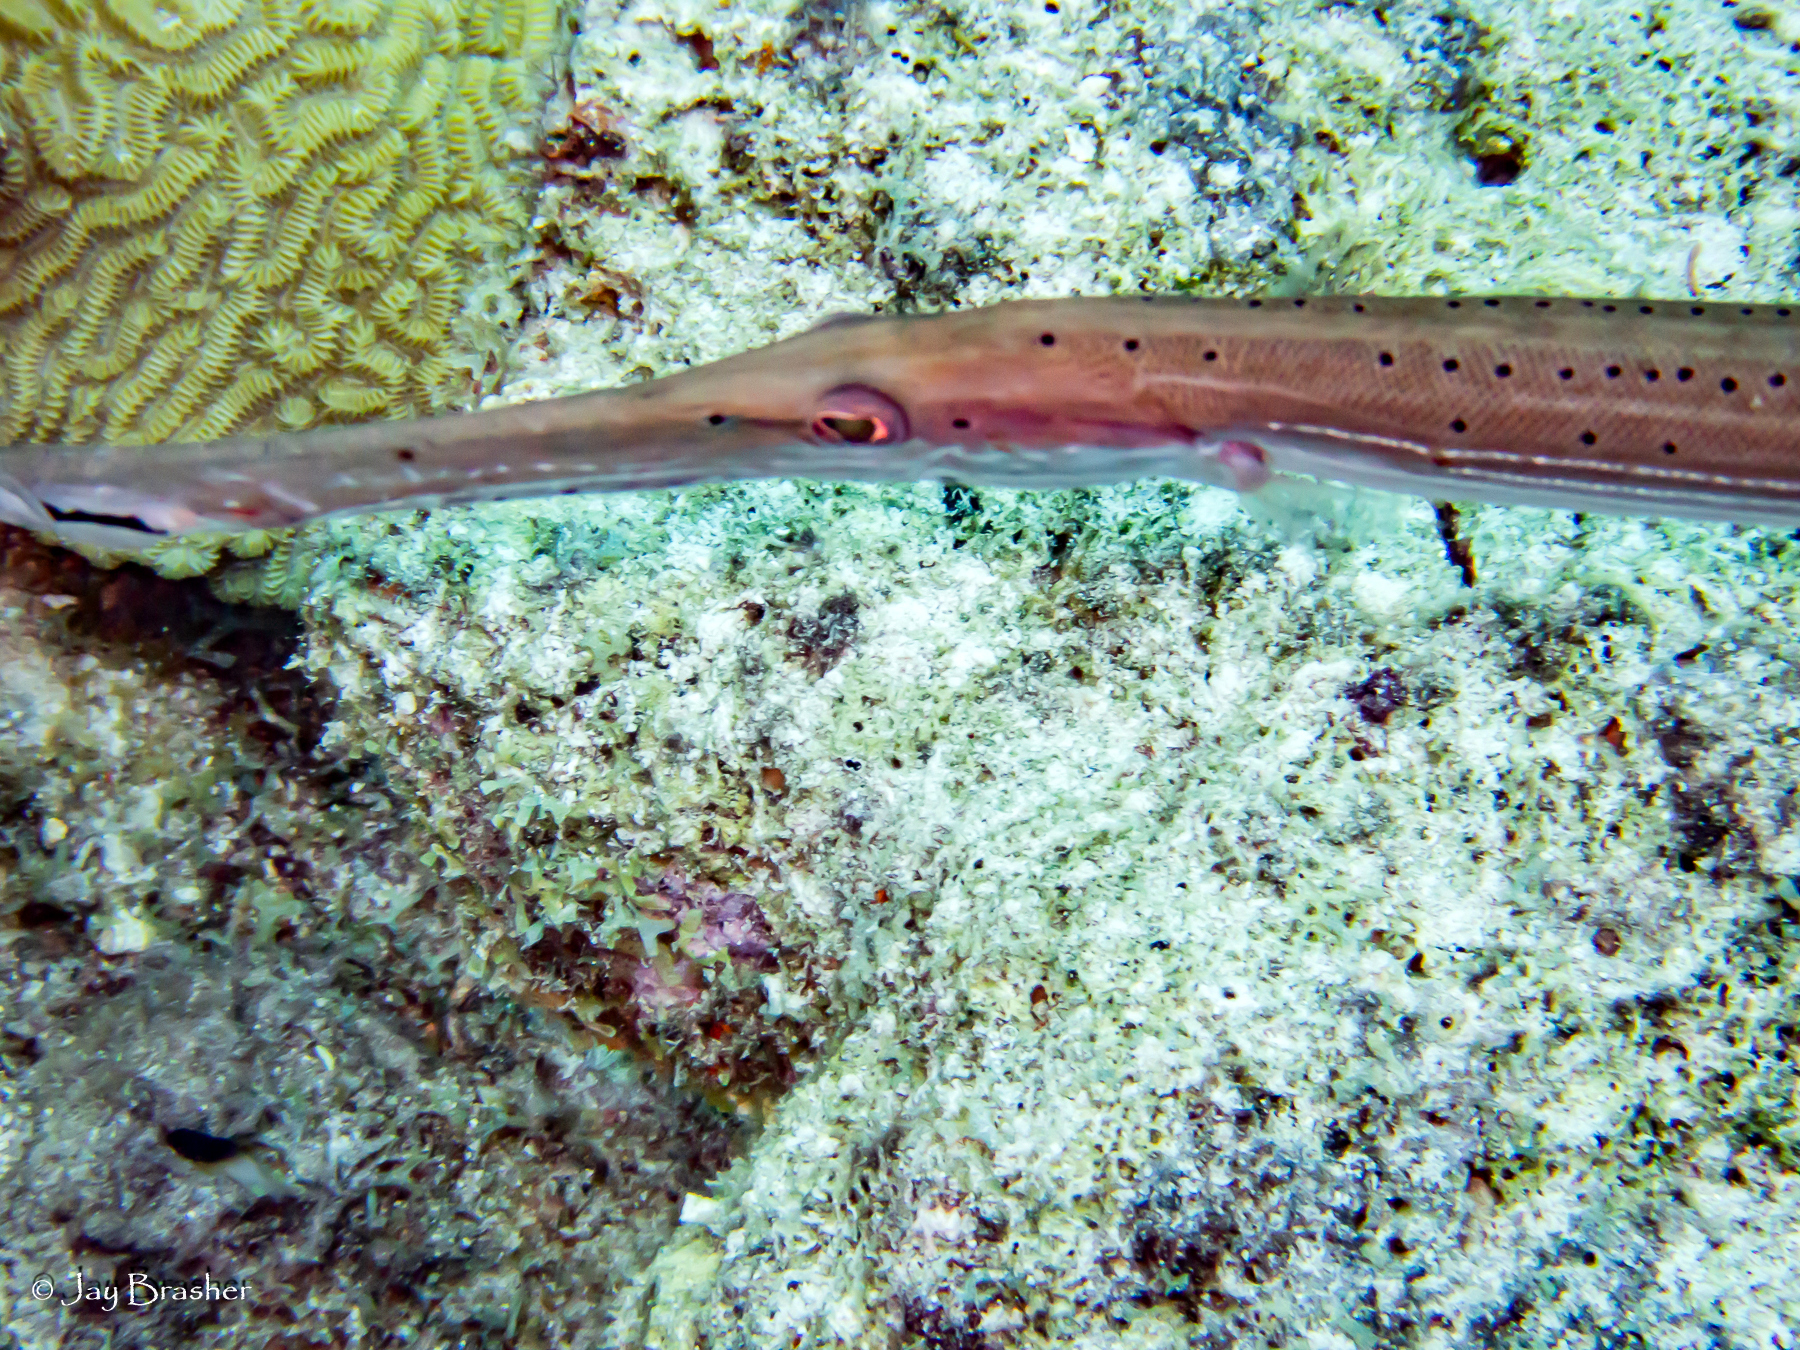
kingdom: Animalia
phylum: Chordata
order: Syngnathiformes
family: Aulostomidae
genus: Aulostomus
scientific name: Aulostomus maculatus
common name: West atlantic trumpetfish
